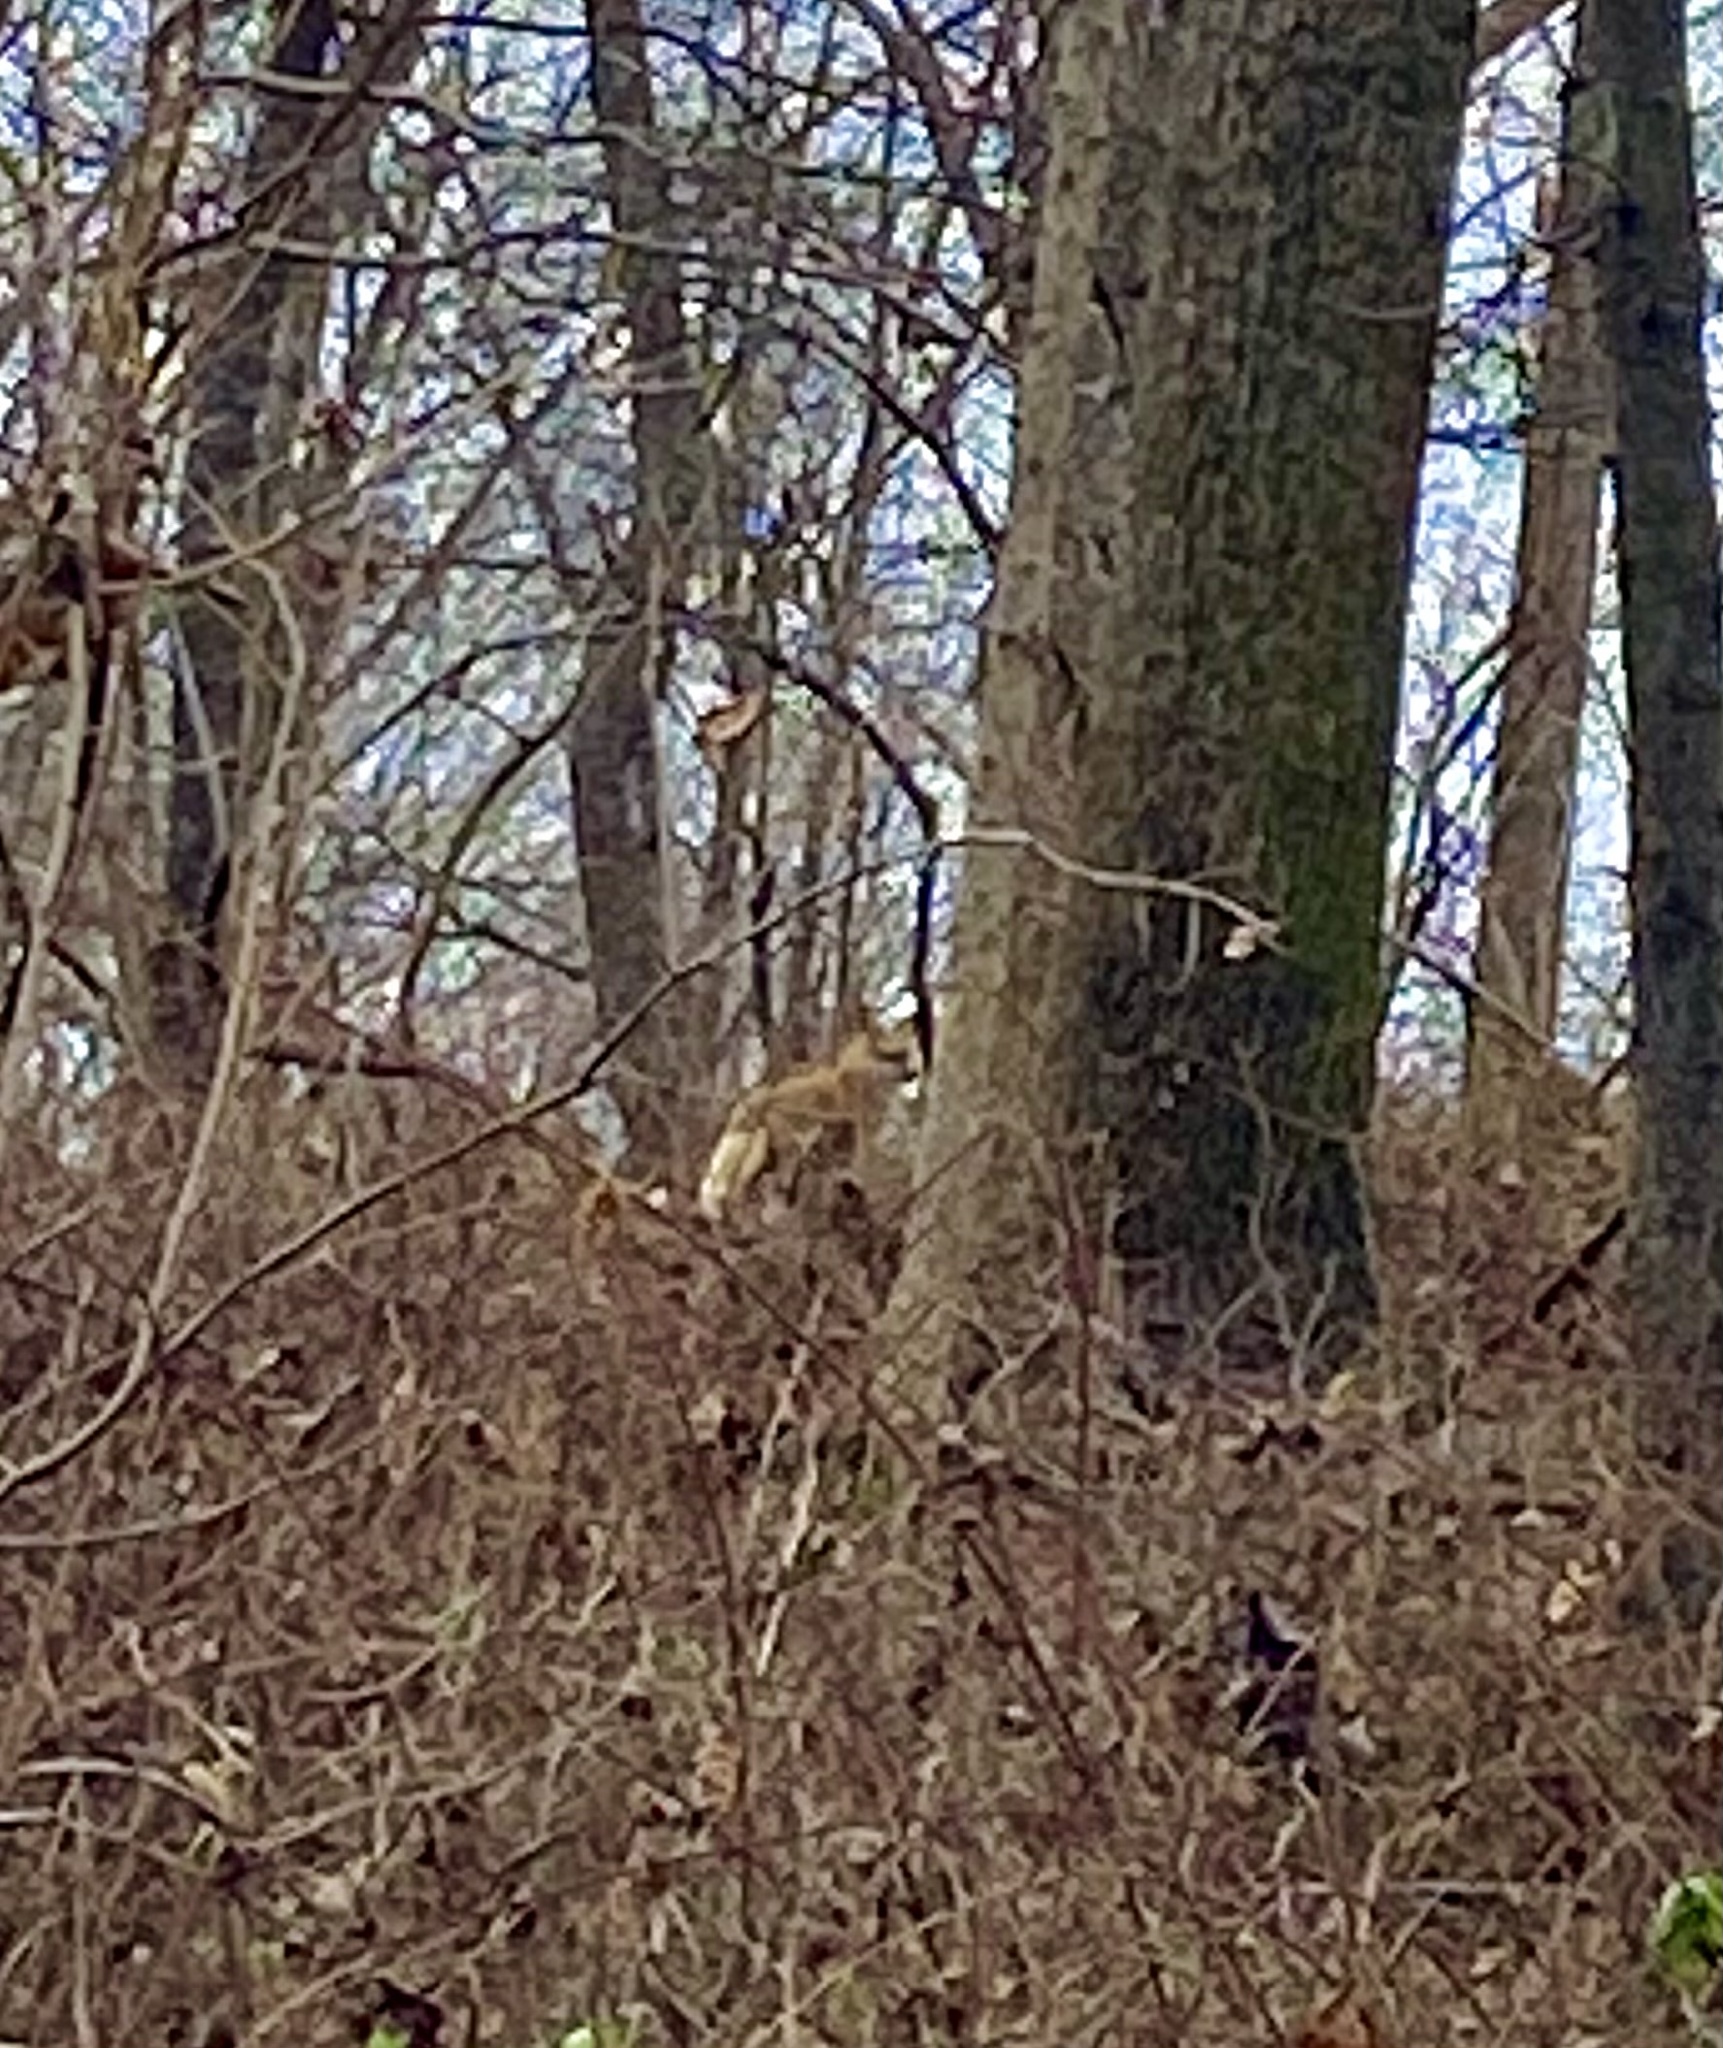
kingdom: Animalia
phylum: Chordata
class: Mammalia
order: Carnivora
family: Canidae
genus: Vulpes
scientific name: Vulpes vulpes
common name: Red fox
